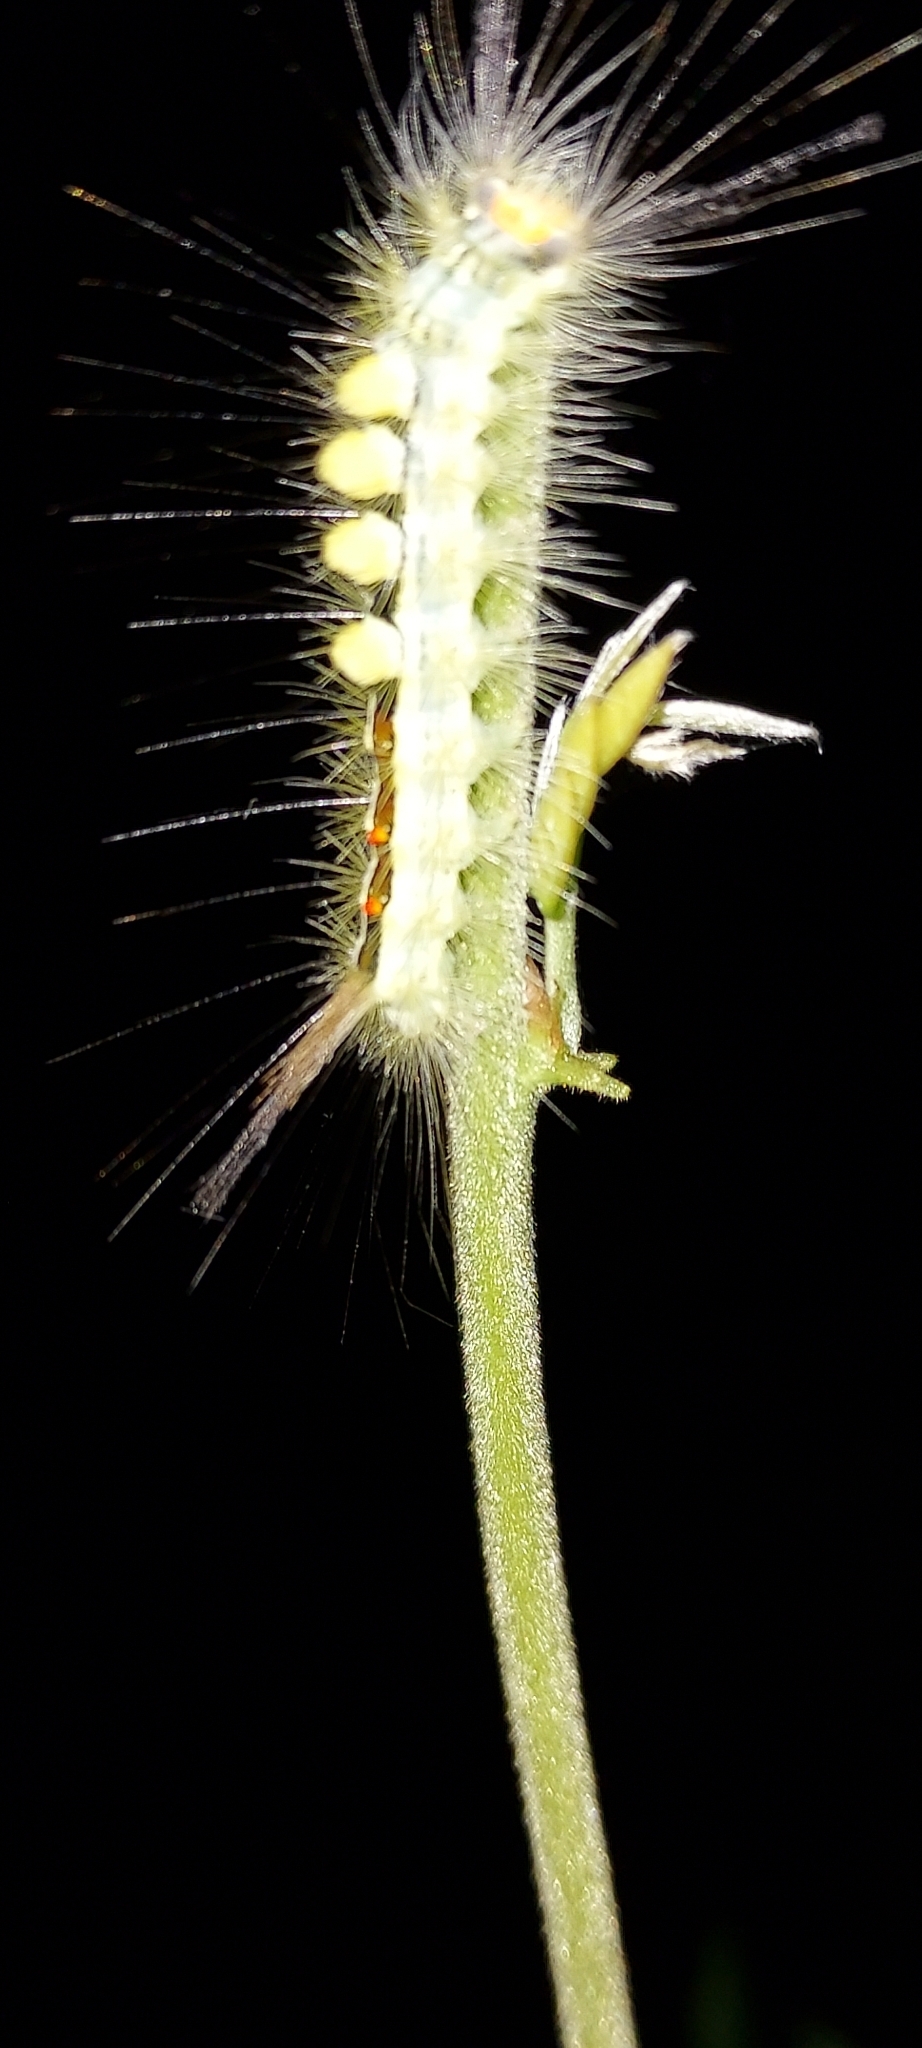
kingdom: Animalia
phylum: Arthropoda
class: Insecta
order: Lepidoptera
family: Erebidae
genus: Orgyia
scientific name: Orgyia leucostigma
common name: White-marked tussock moth
